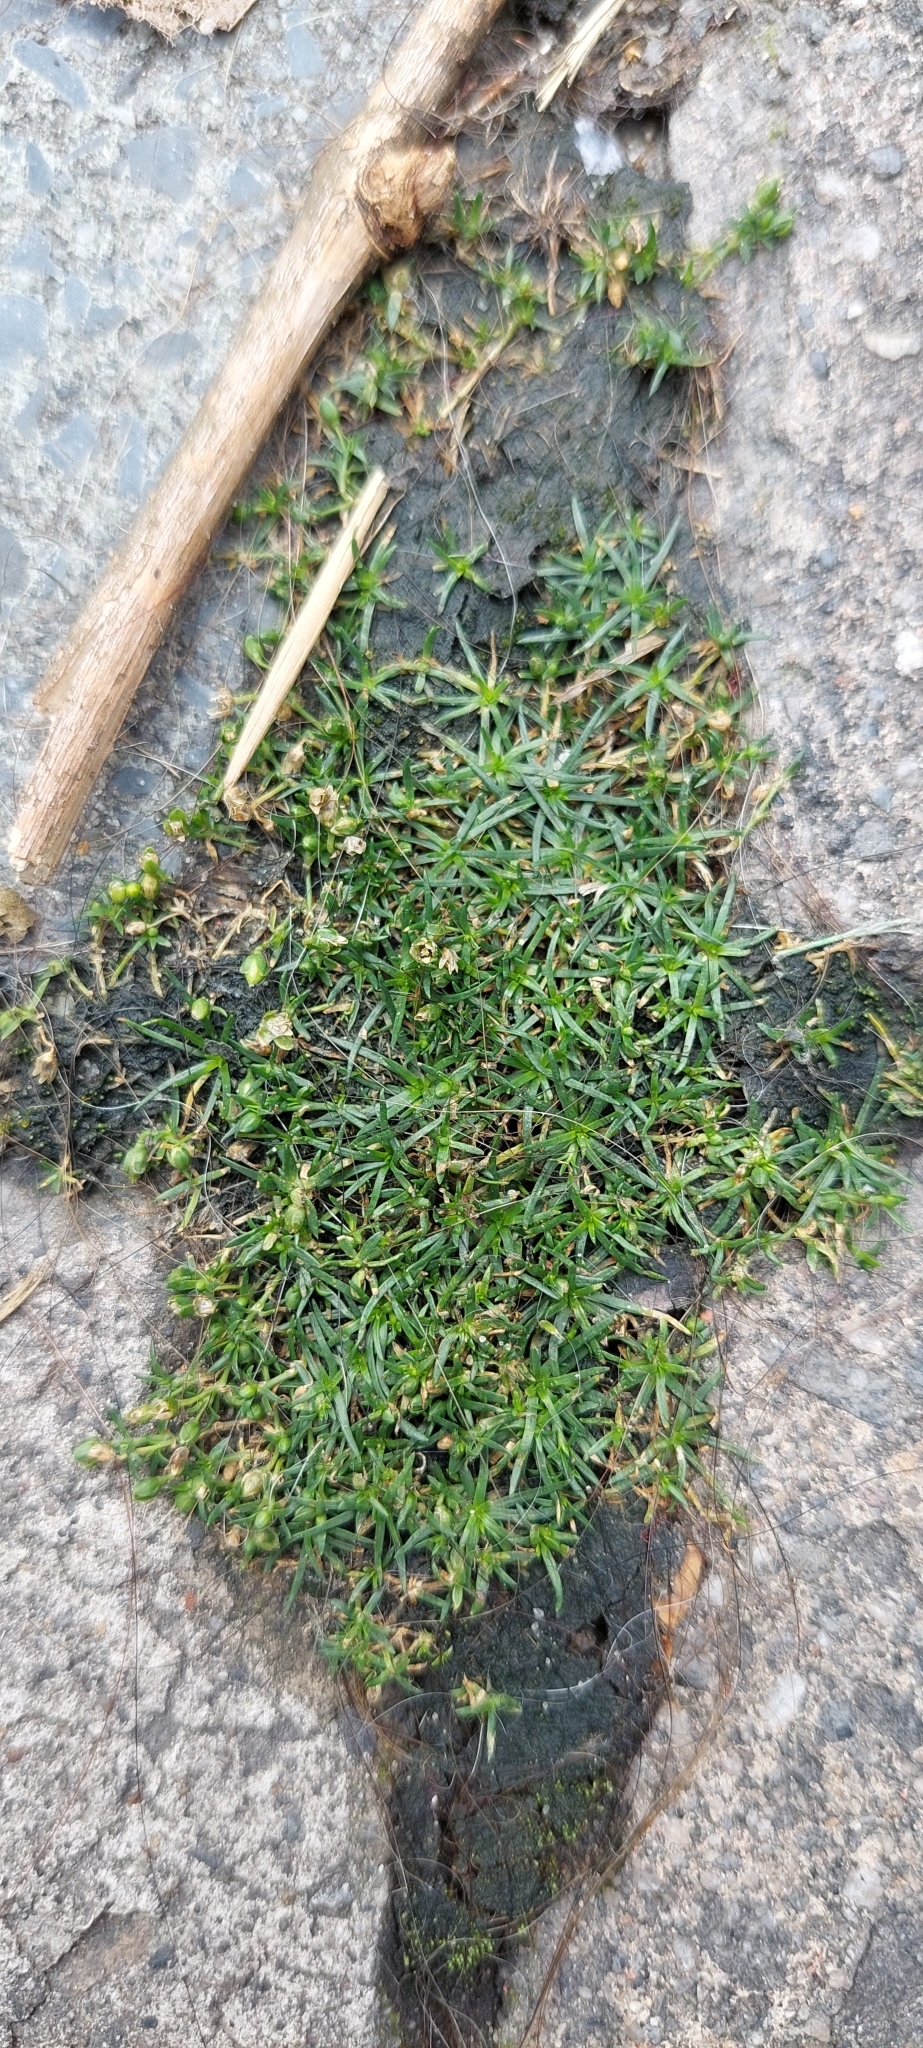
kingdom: Plantae
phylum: Tracheophyta
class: Magnoliopsida
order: Caryophyllales
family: Caryophyllaceae
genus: Sagina
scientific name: Sagina procumbens
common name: Procumbent pearlwort
